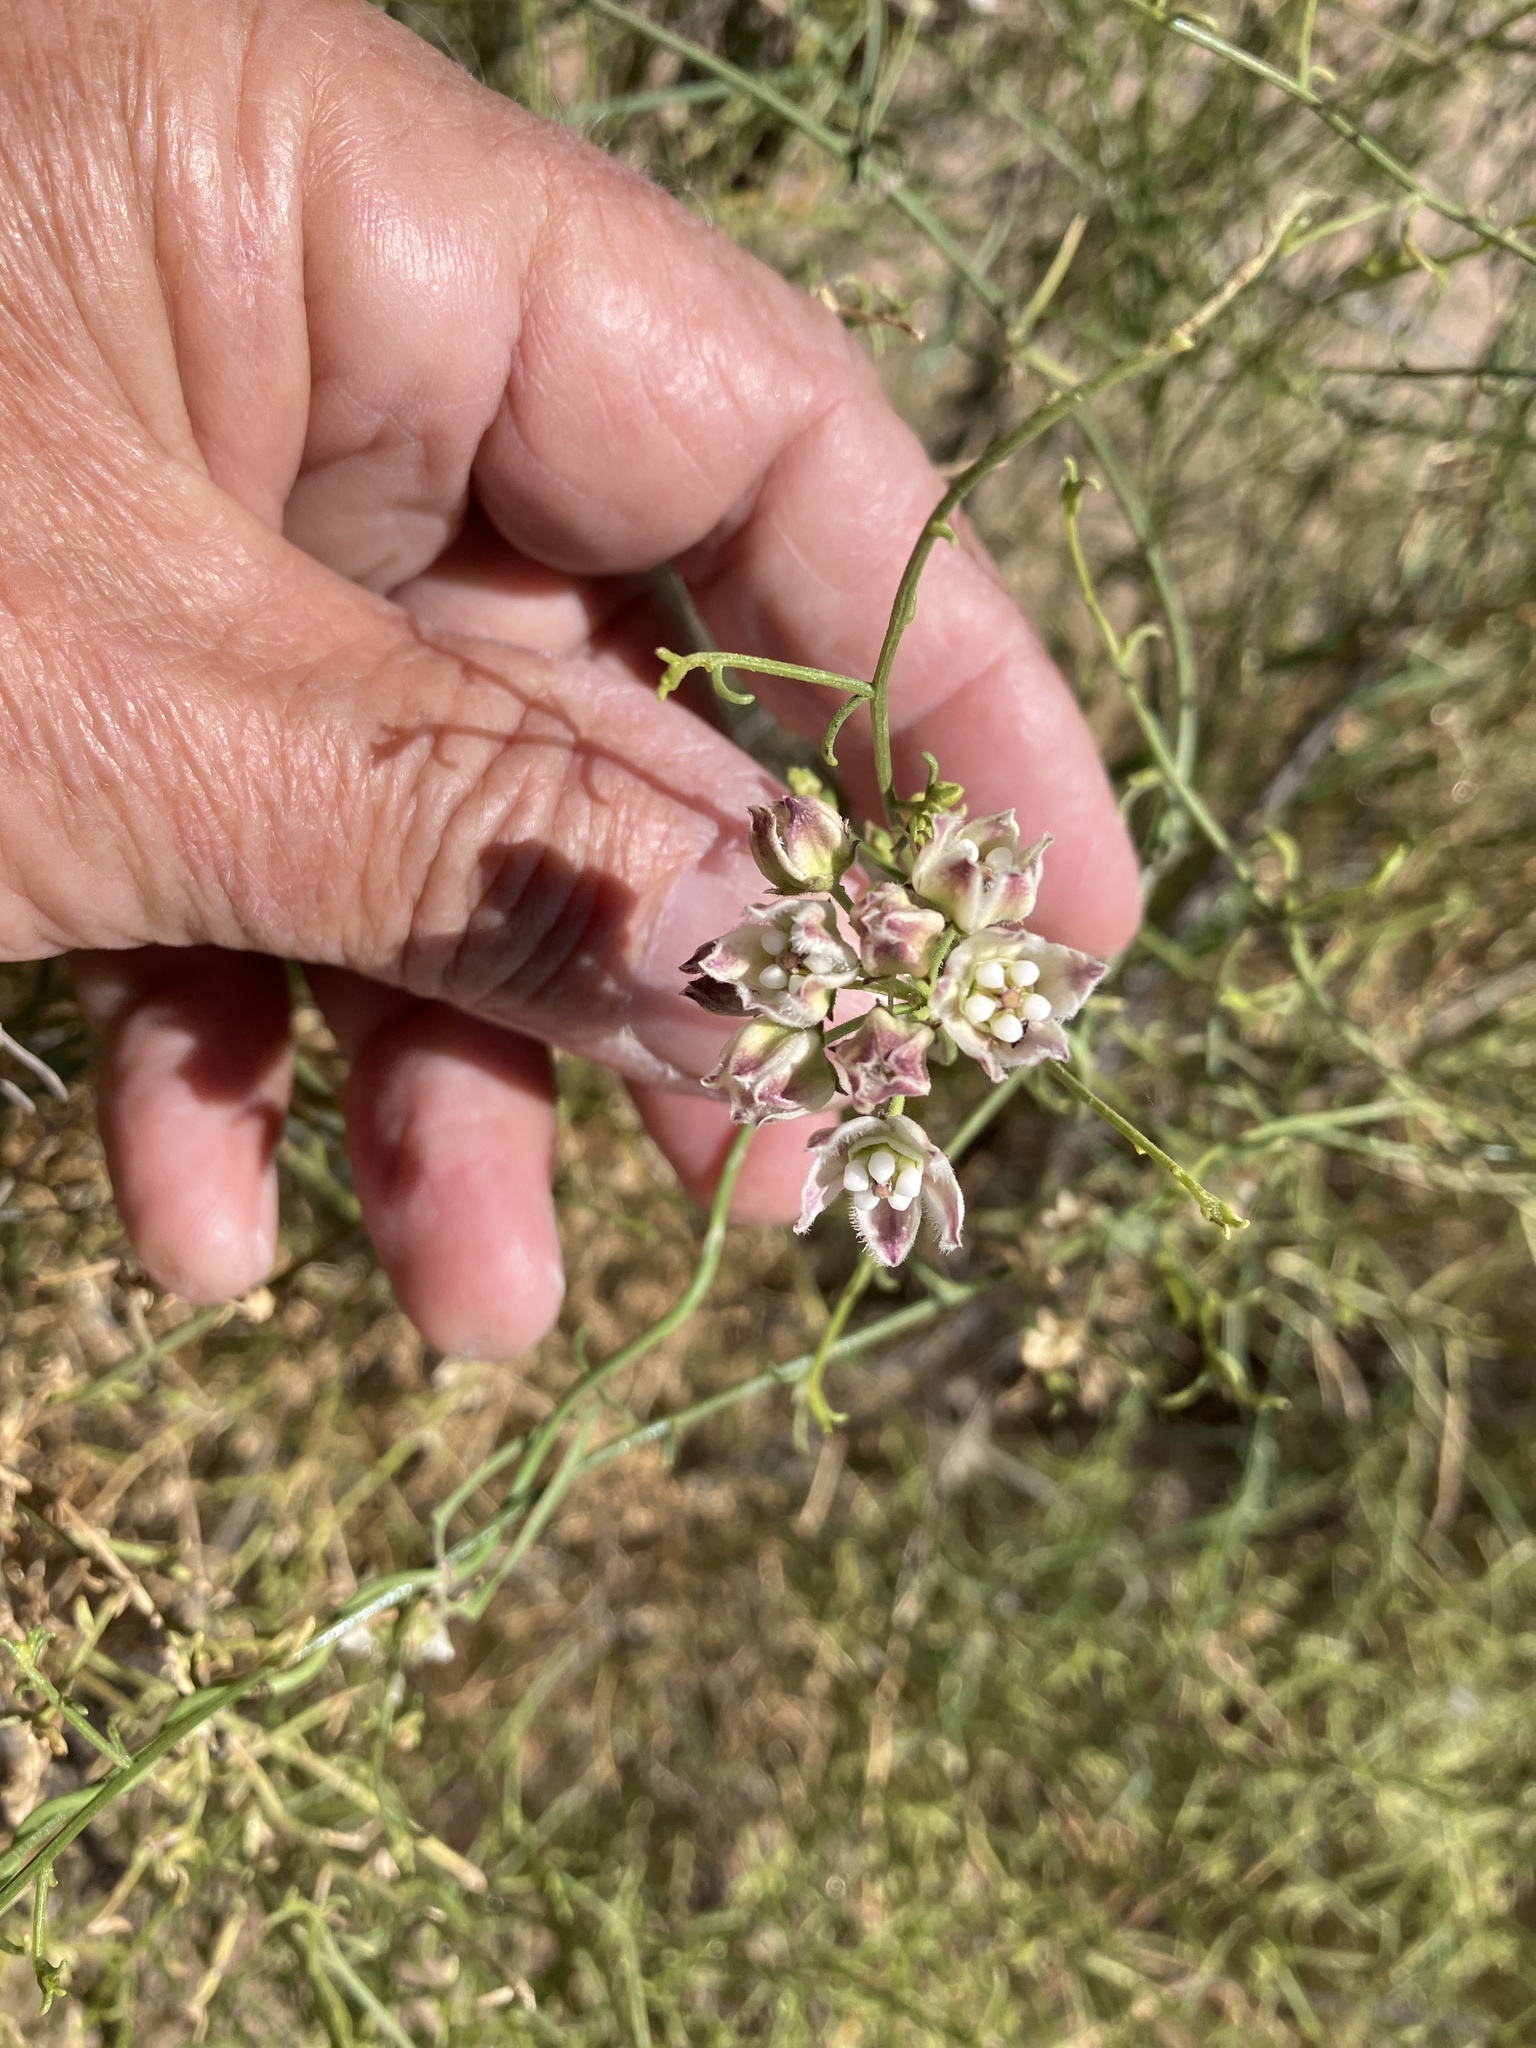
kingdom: Plantae
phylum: Tracheophyta
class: Magnoliopsida
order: Gentianales
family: Apocynaceae
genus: Funastrum
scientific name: Funastrum hirtellum
